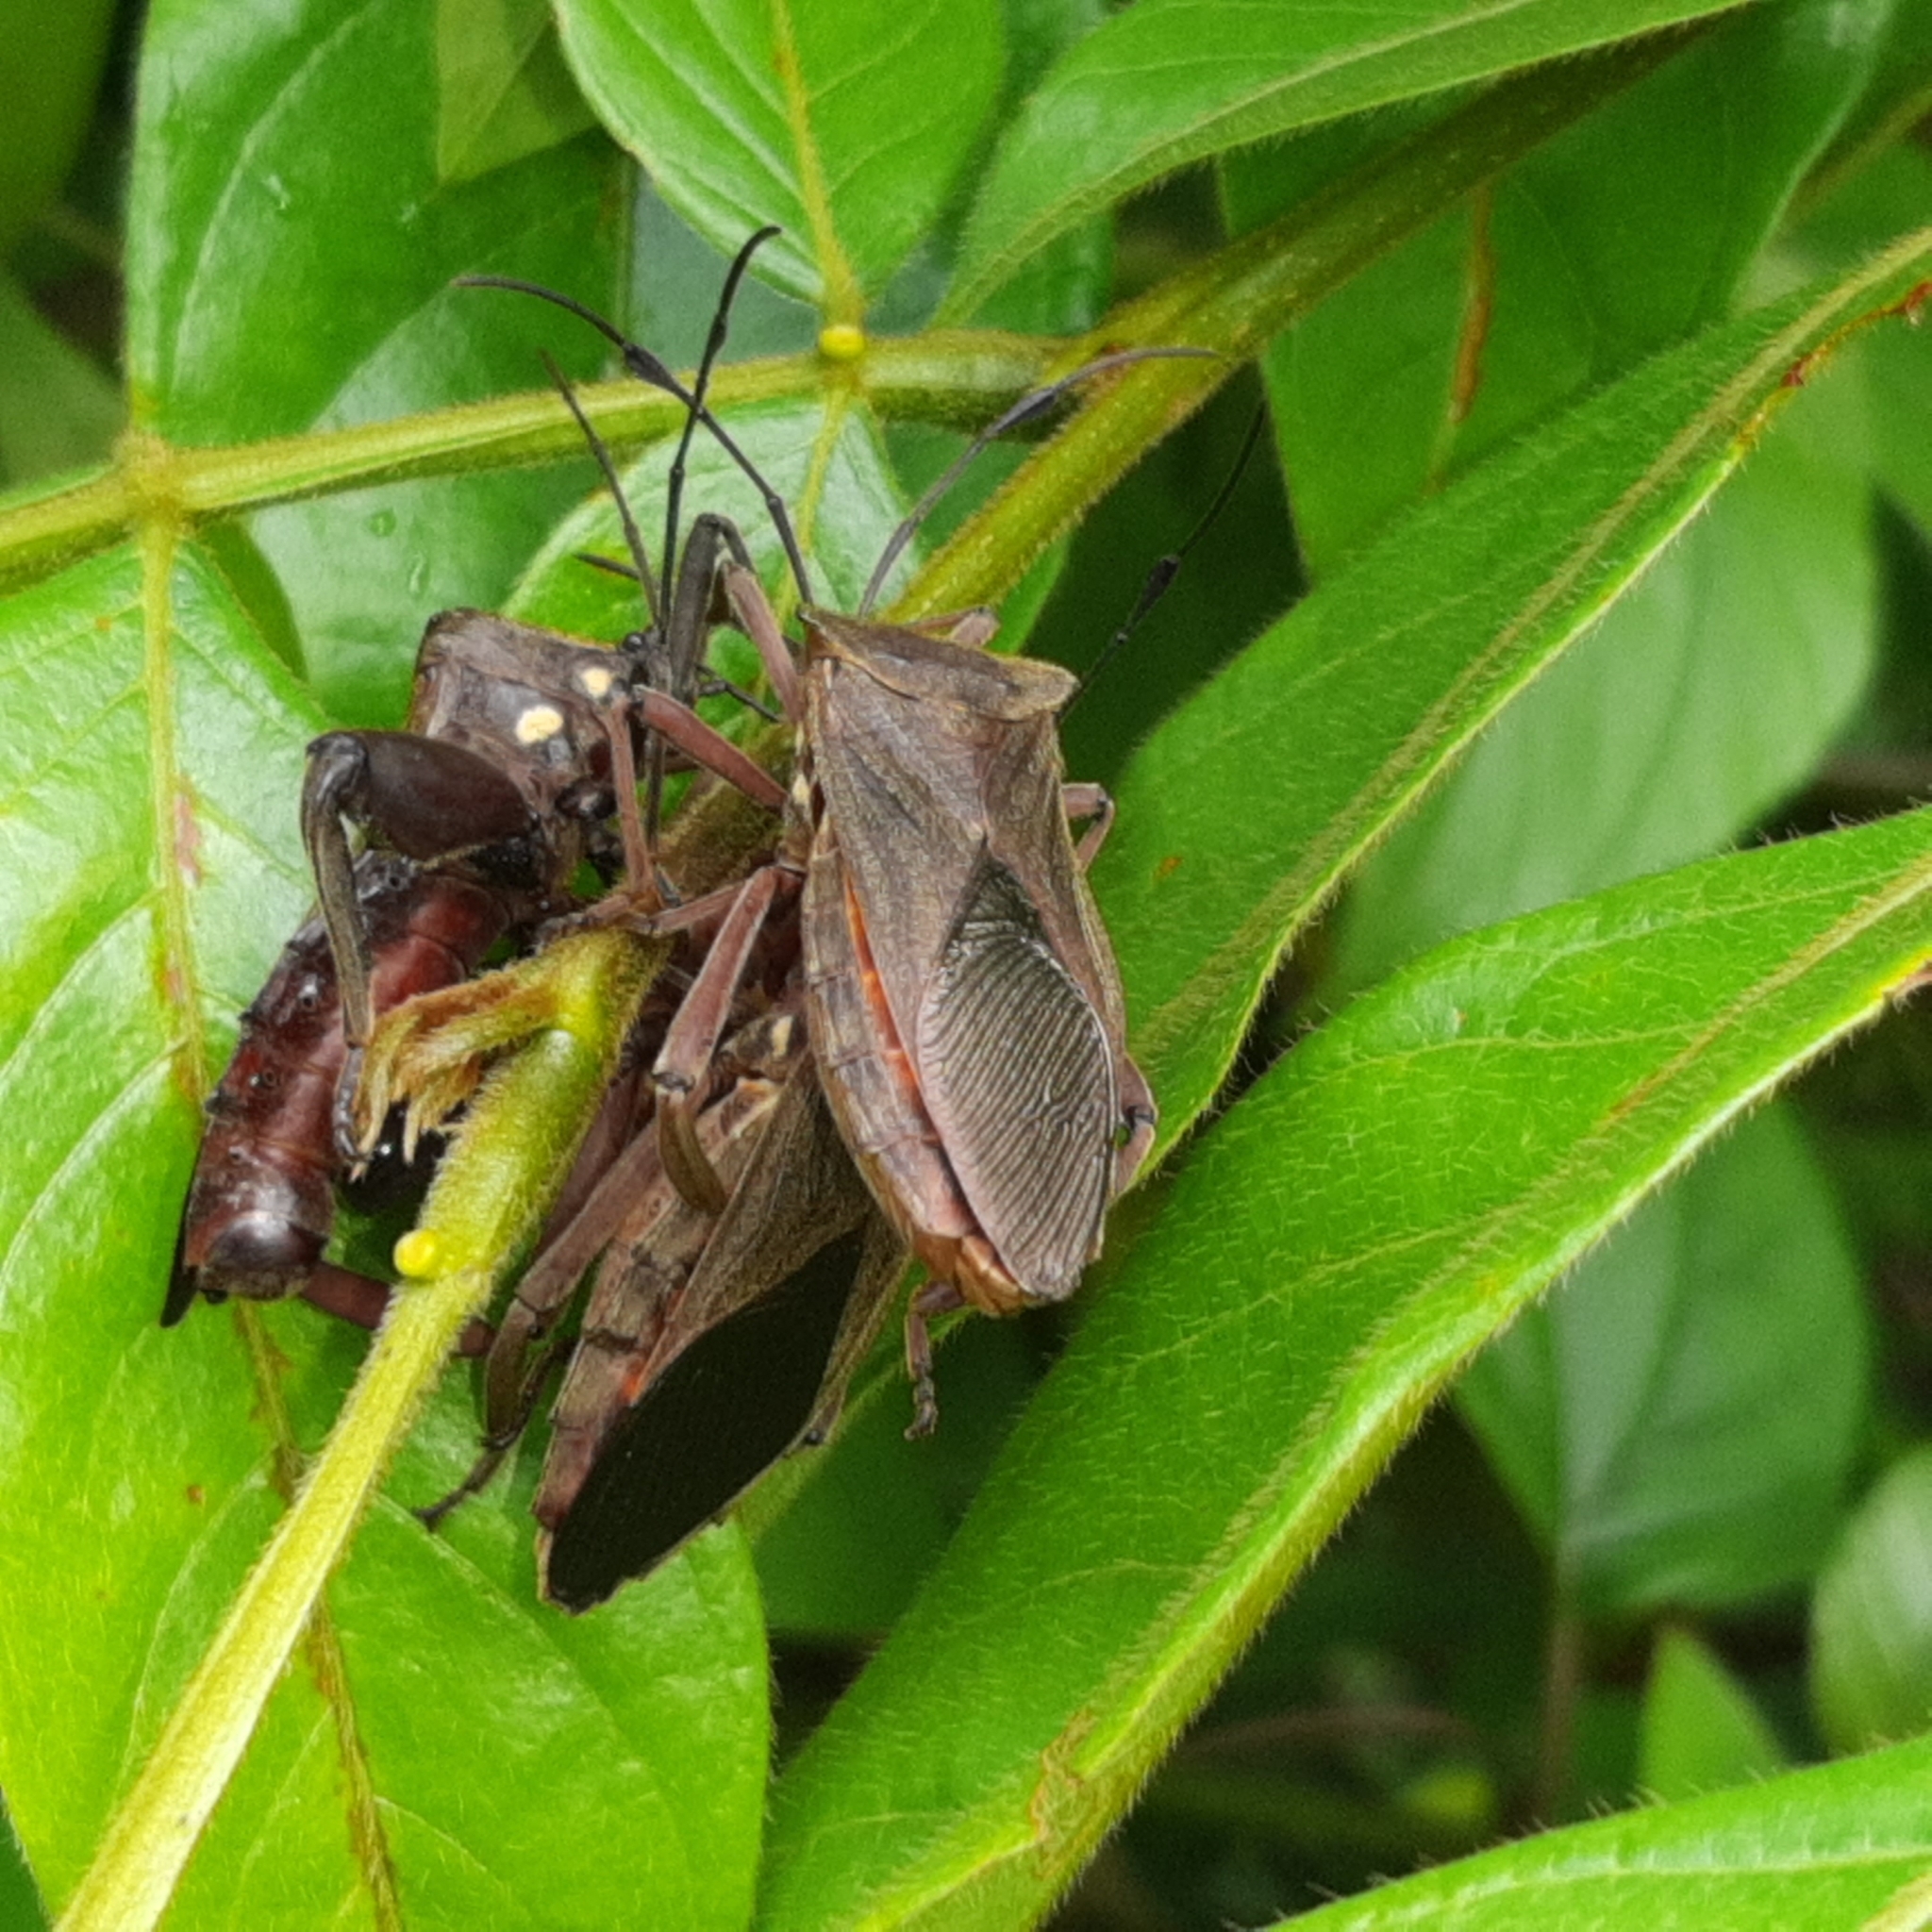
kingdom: Animalia
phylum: Arthropoda
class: Insecta
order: Hemiptera
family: Coreidae
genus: Thasus
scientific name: Thasus heteropus
